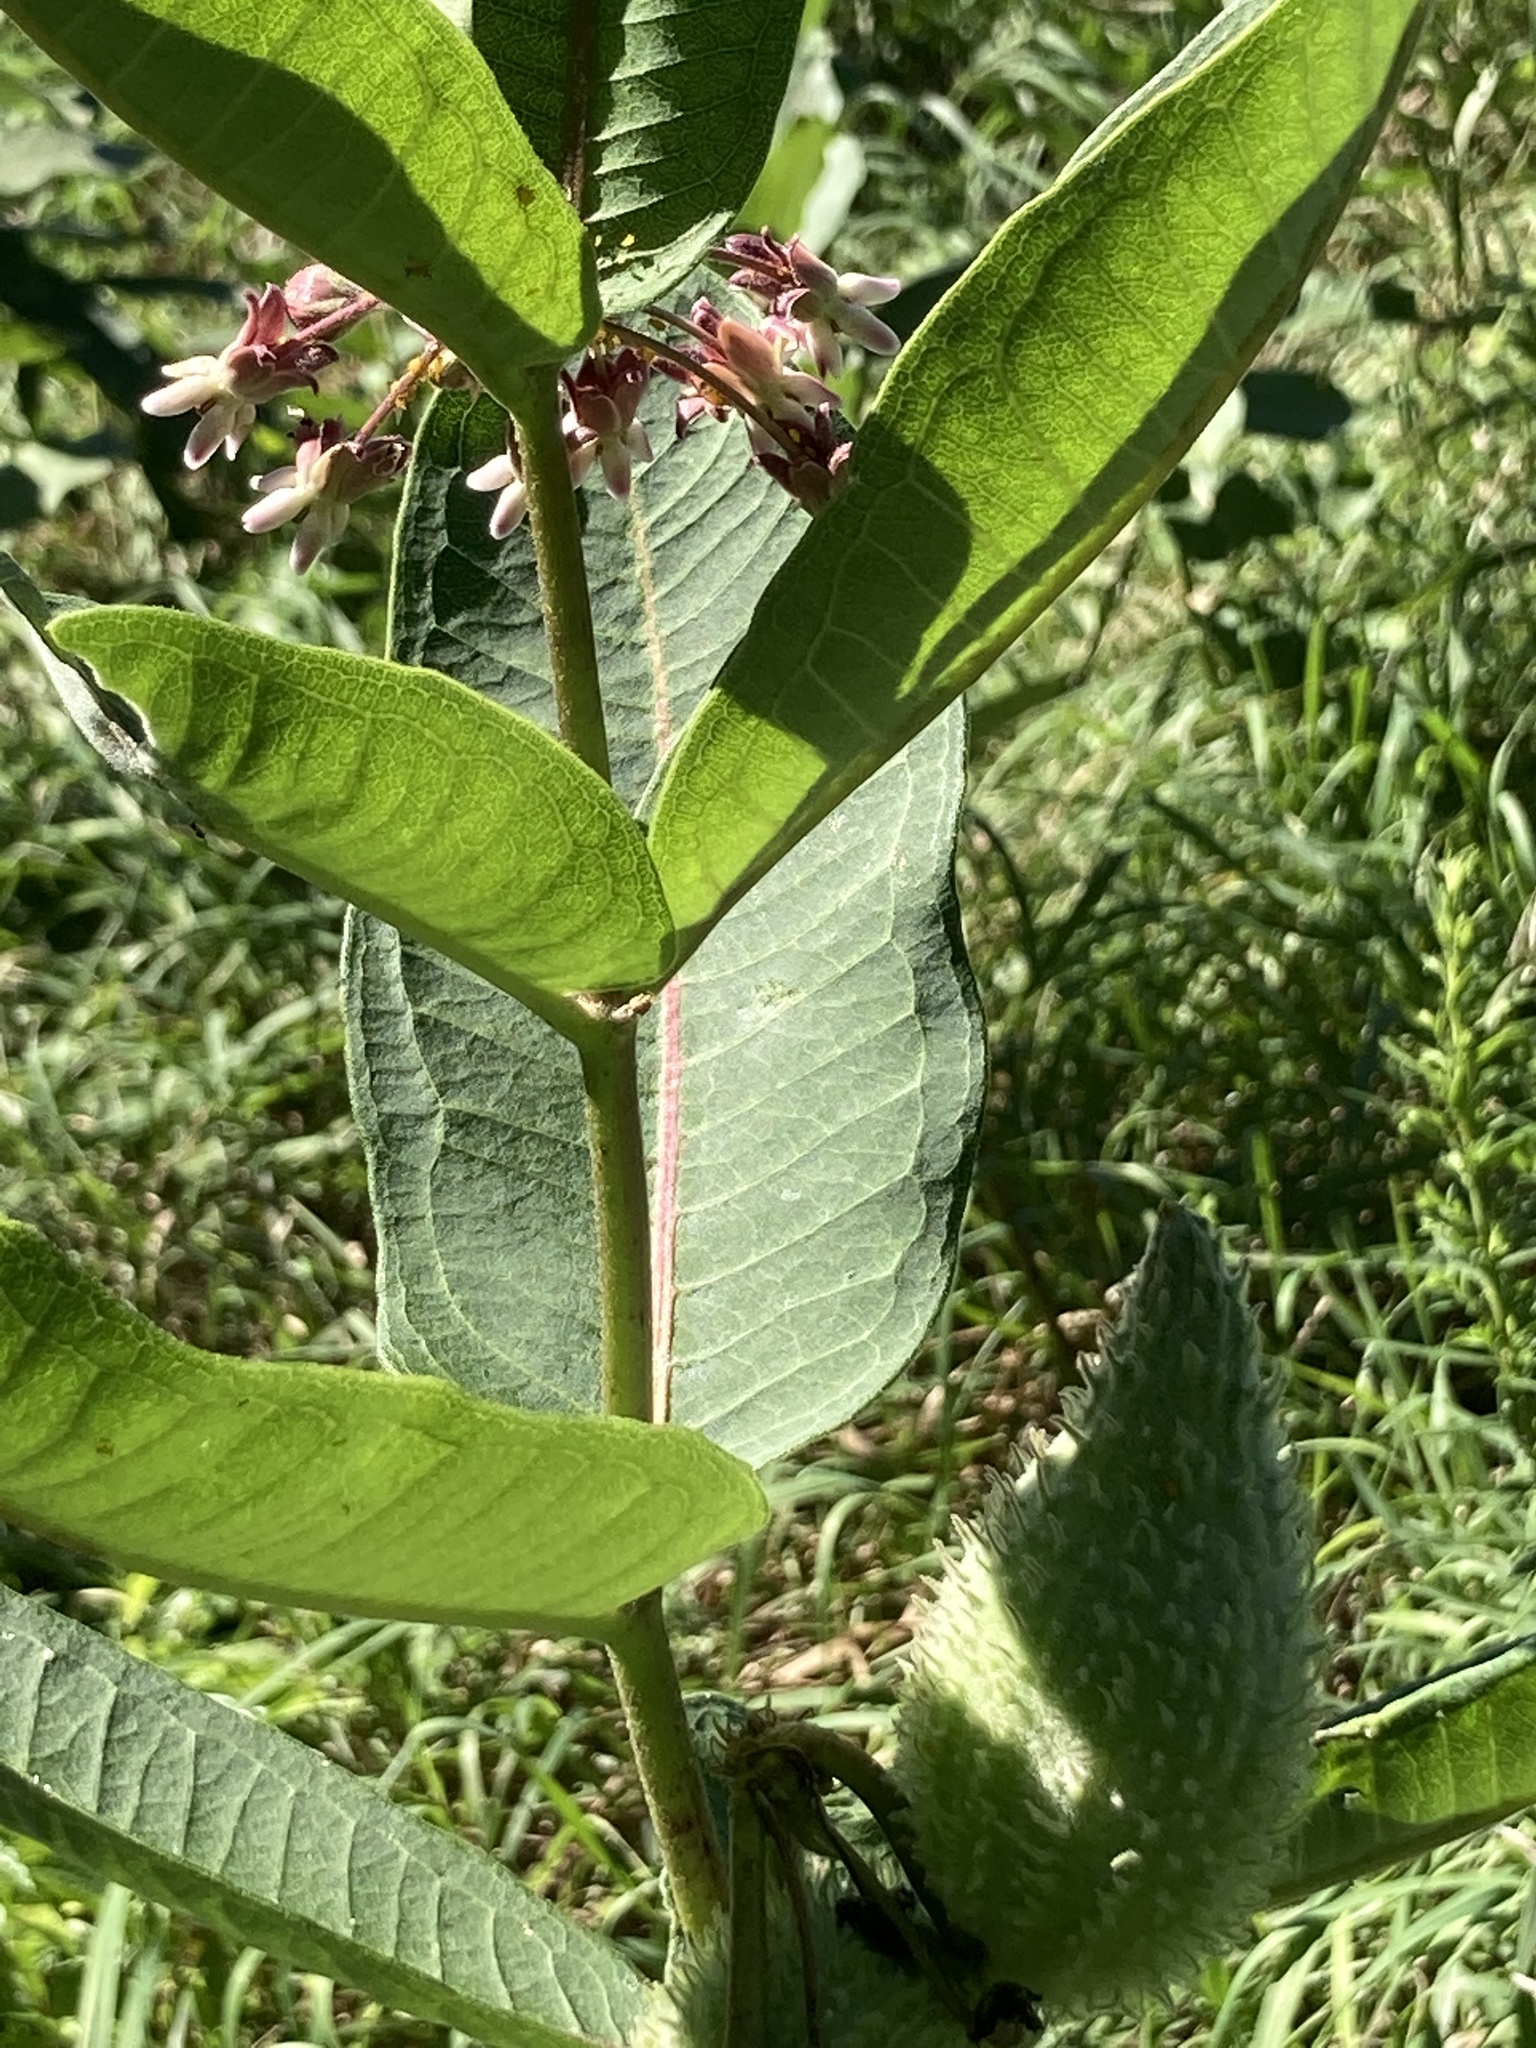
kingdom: Plantae
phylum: Tracheophyta
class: Magnoliopsida
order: Gentianales
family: Apocynaceae
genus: Asclepias
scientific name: Asclepias syriaca
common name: Common milkweed
